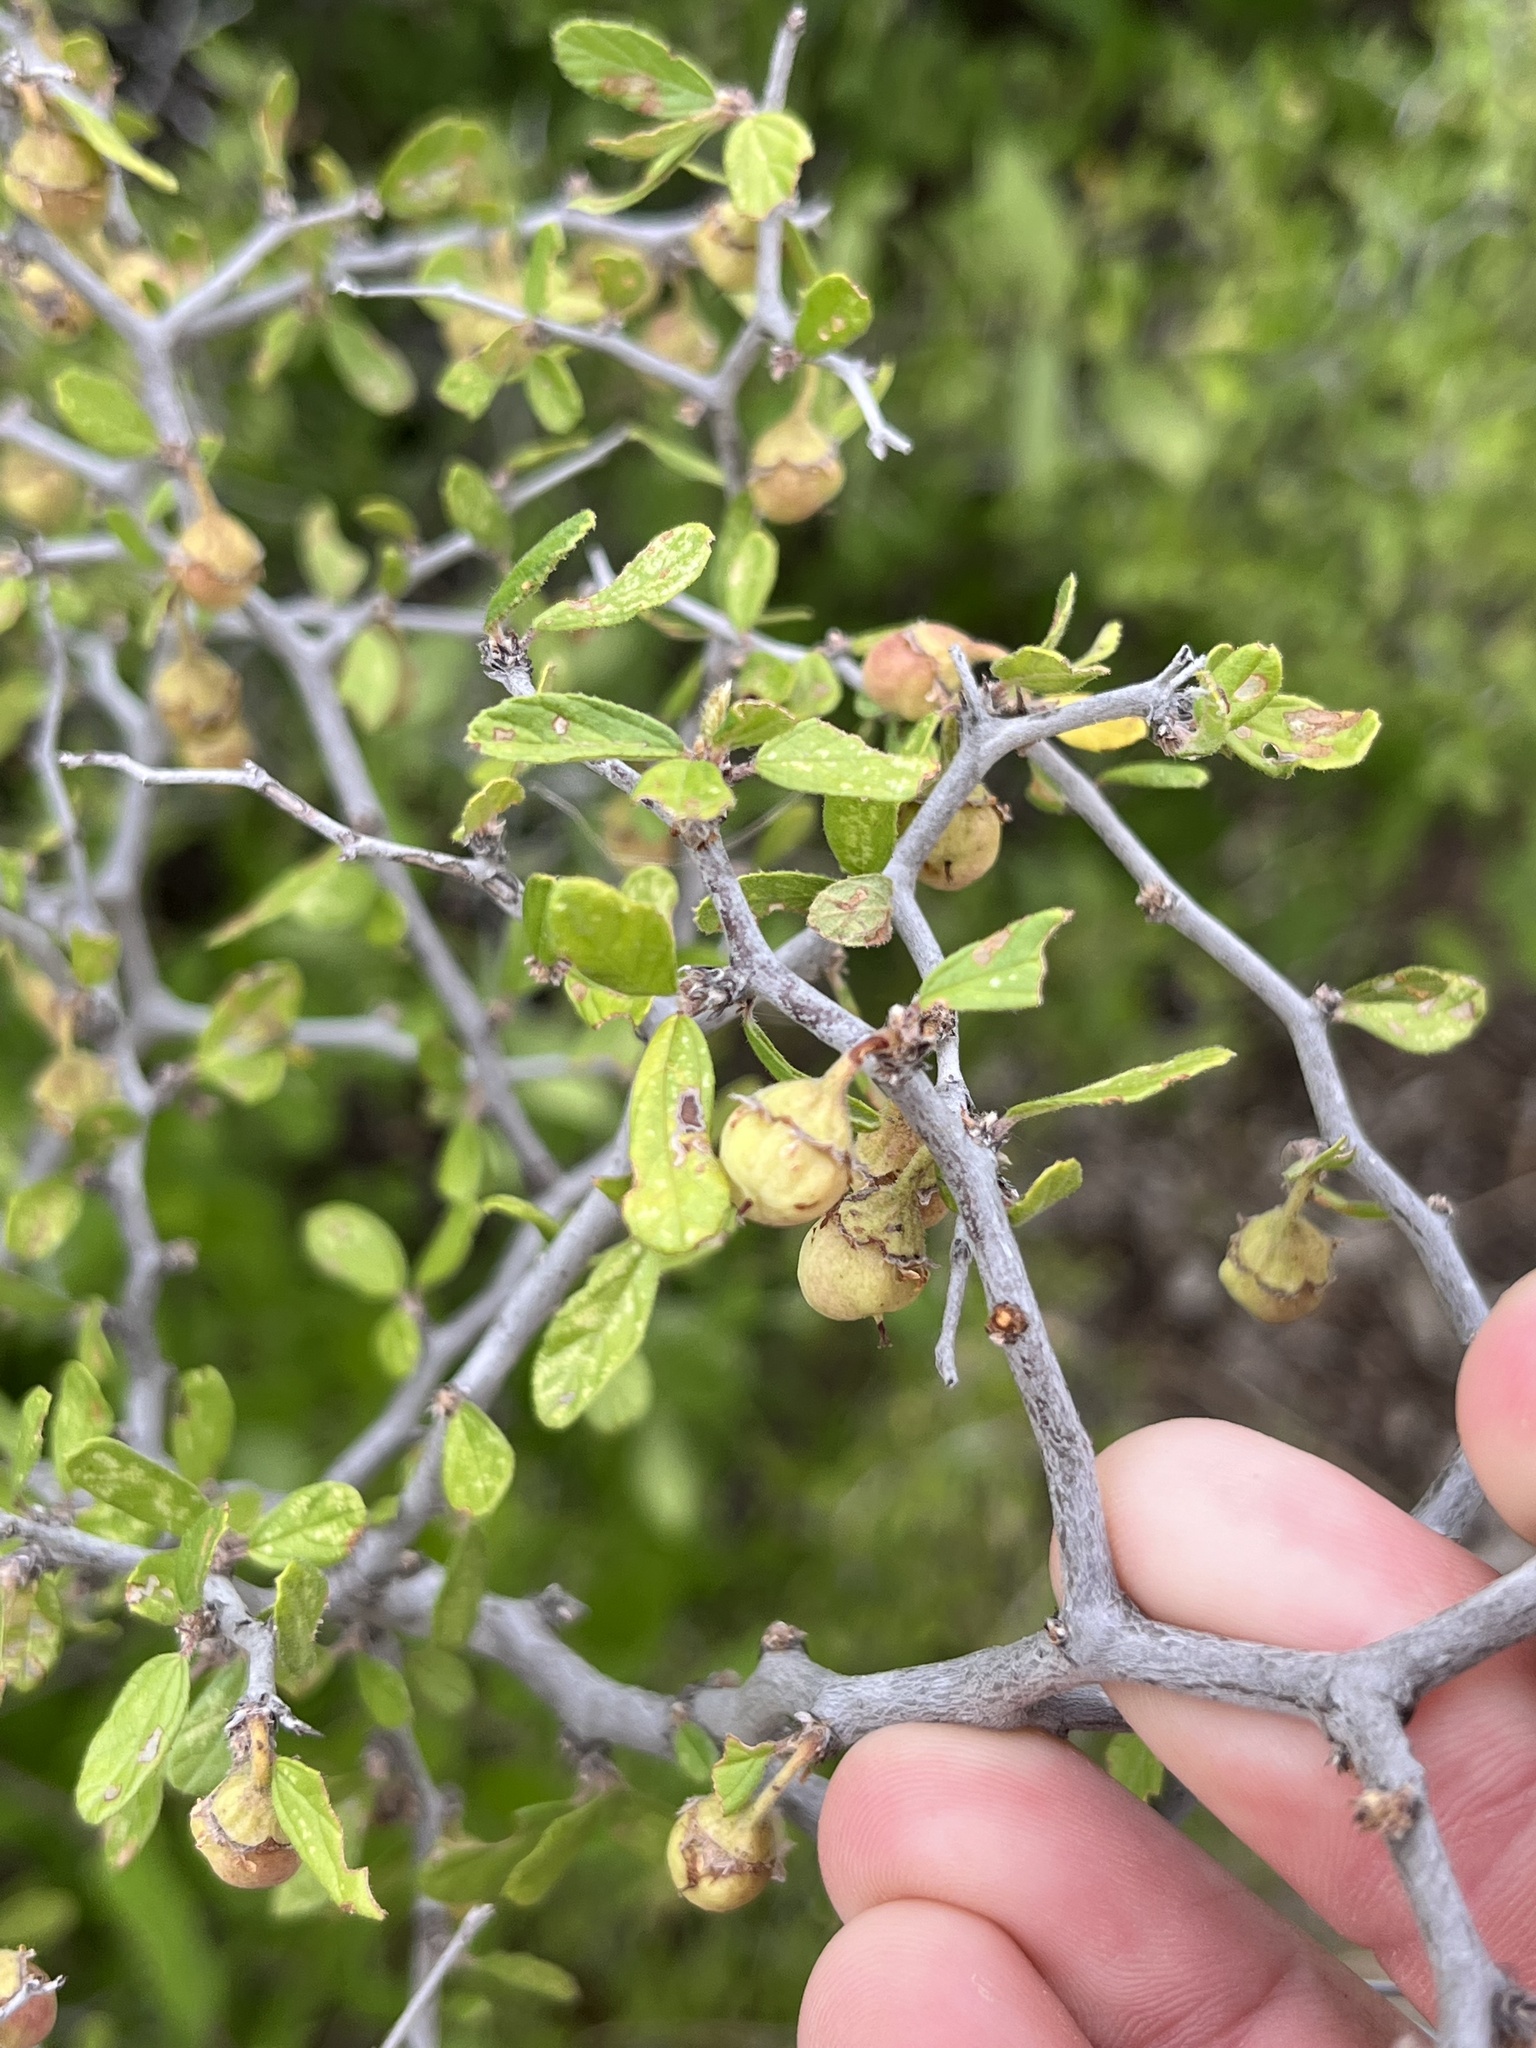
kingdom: Plantae
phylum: Tracheophyta
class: Magnoliopsida
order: Rosales
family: Rhamnaceae
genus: Colubrina
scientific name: Colubrina texensis
